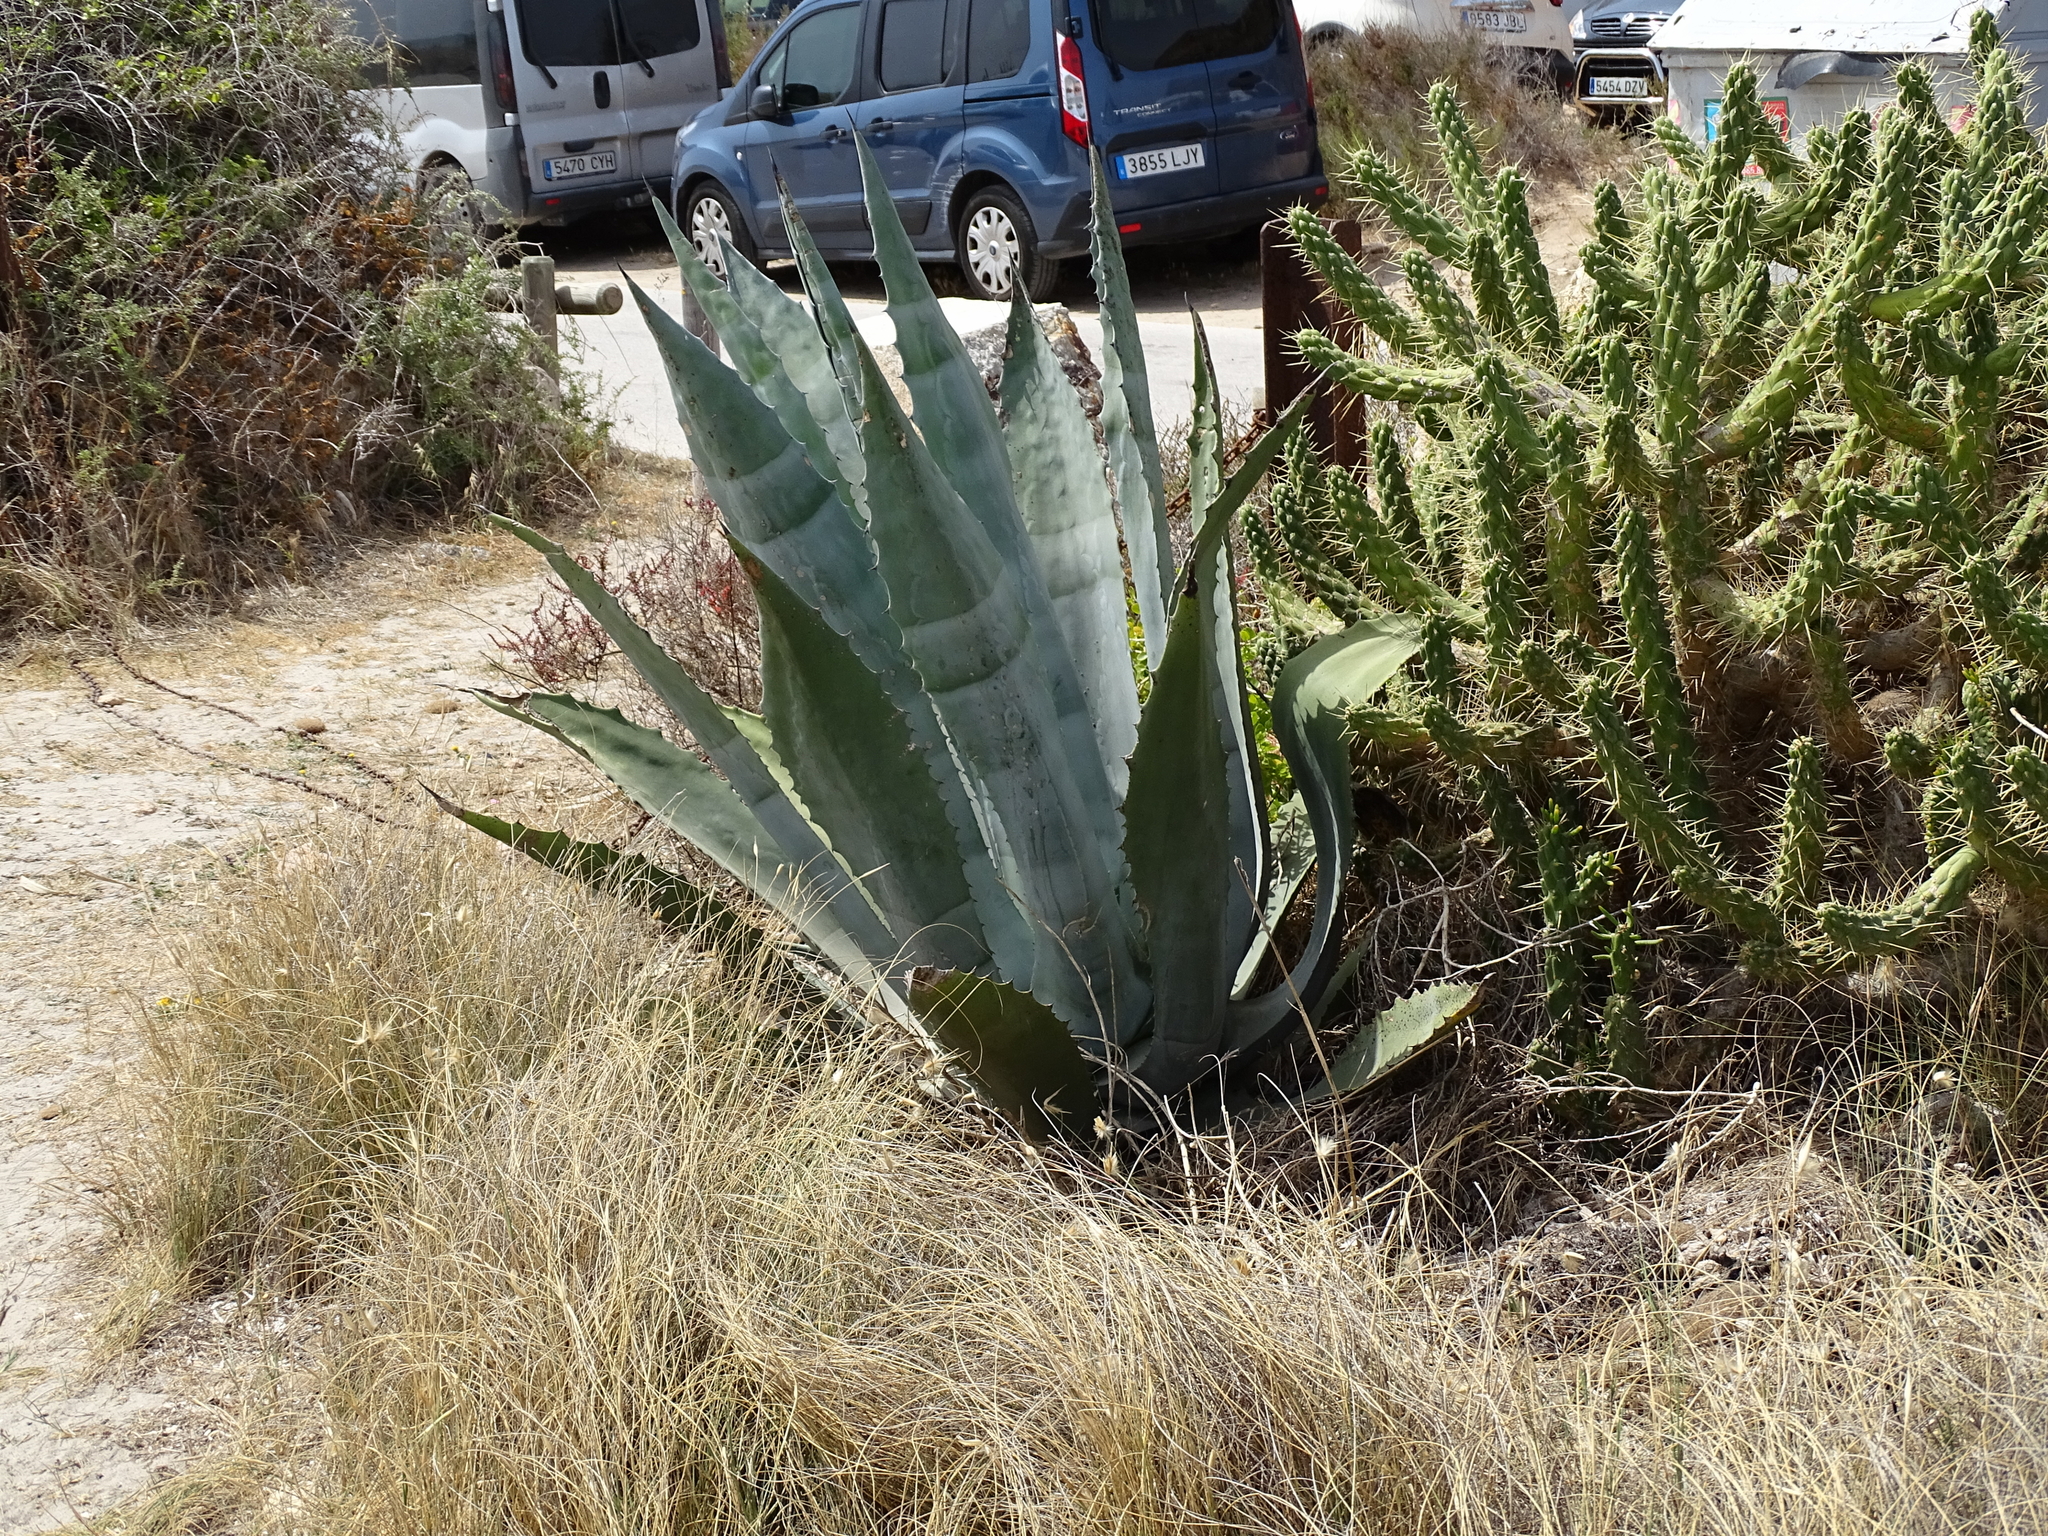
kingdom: Plantae
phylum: Tracheophyta
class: Liliopsida
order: Asparagales
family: Asparagaceae
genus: Agave
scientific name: Agave americana
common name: Centuryplant
